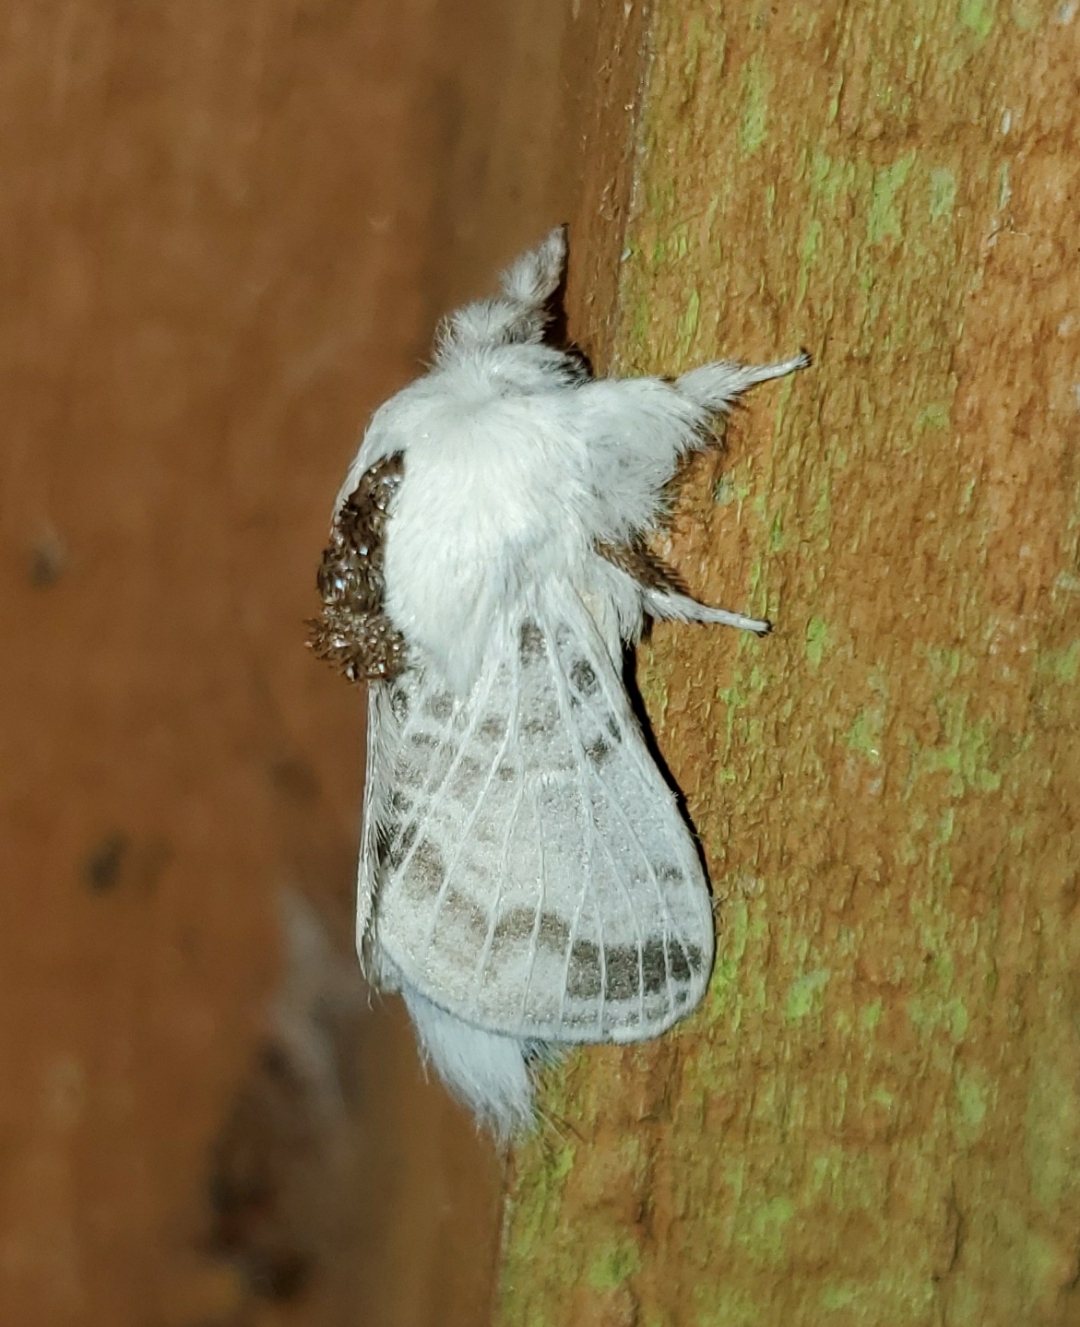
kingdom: Animalia
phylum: Arthropoda
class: Insecta
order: Lepidoptera
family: Lasiocampidae
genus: Tolype
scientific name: Tolype minta
